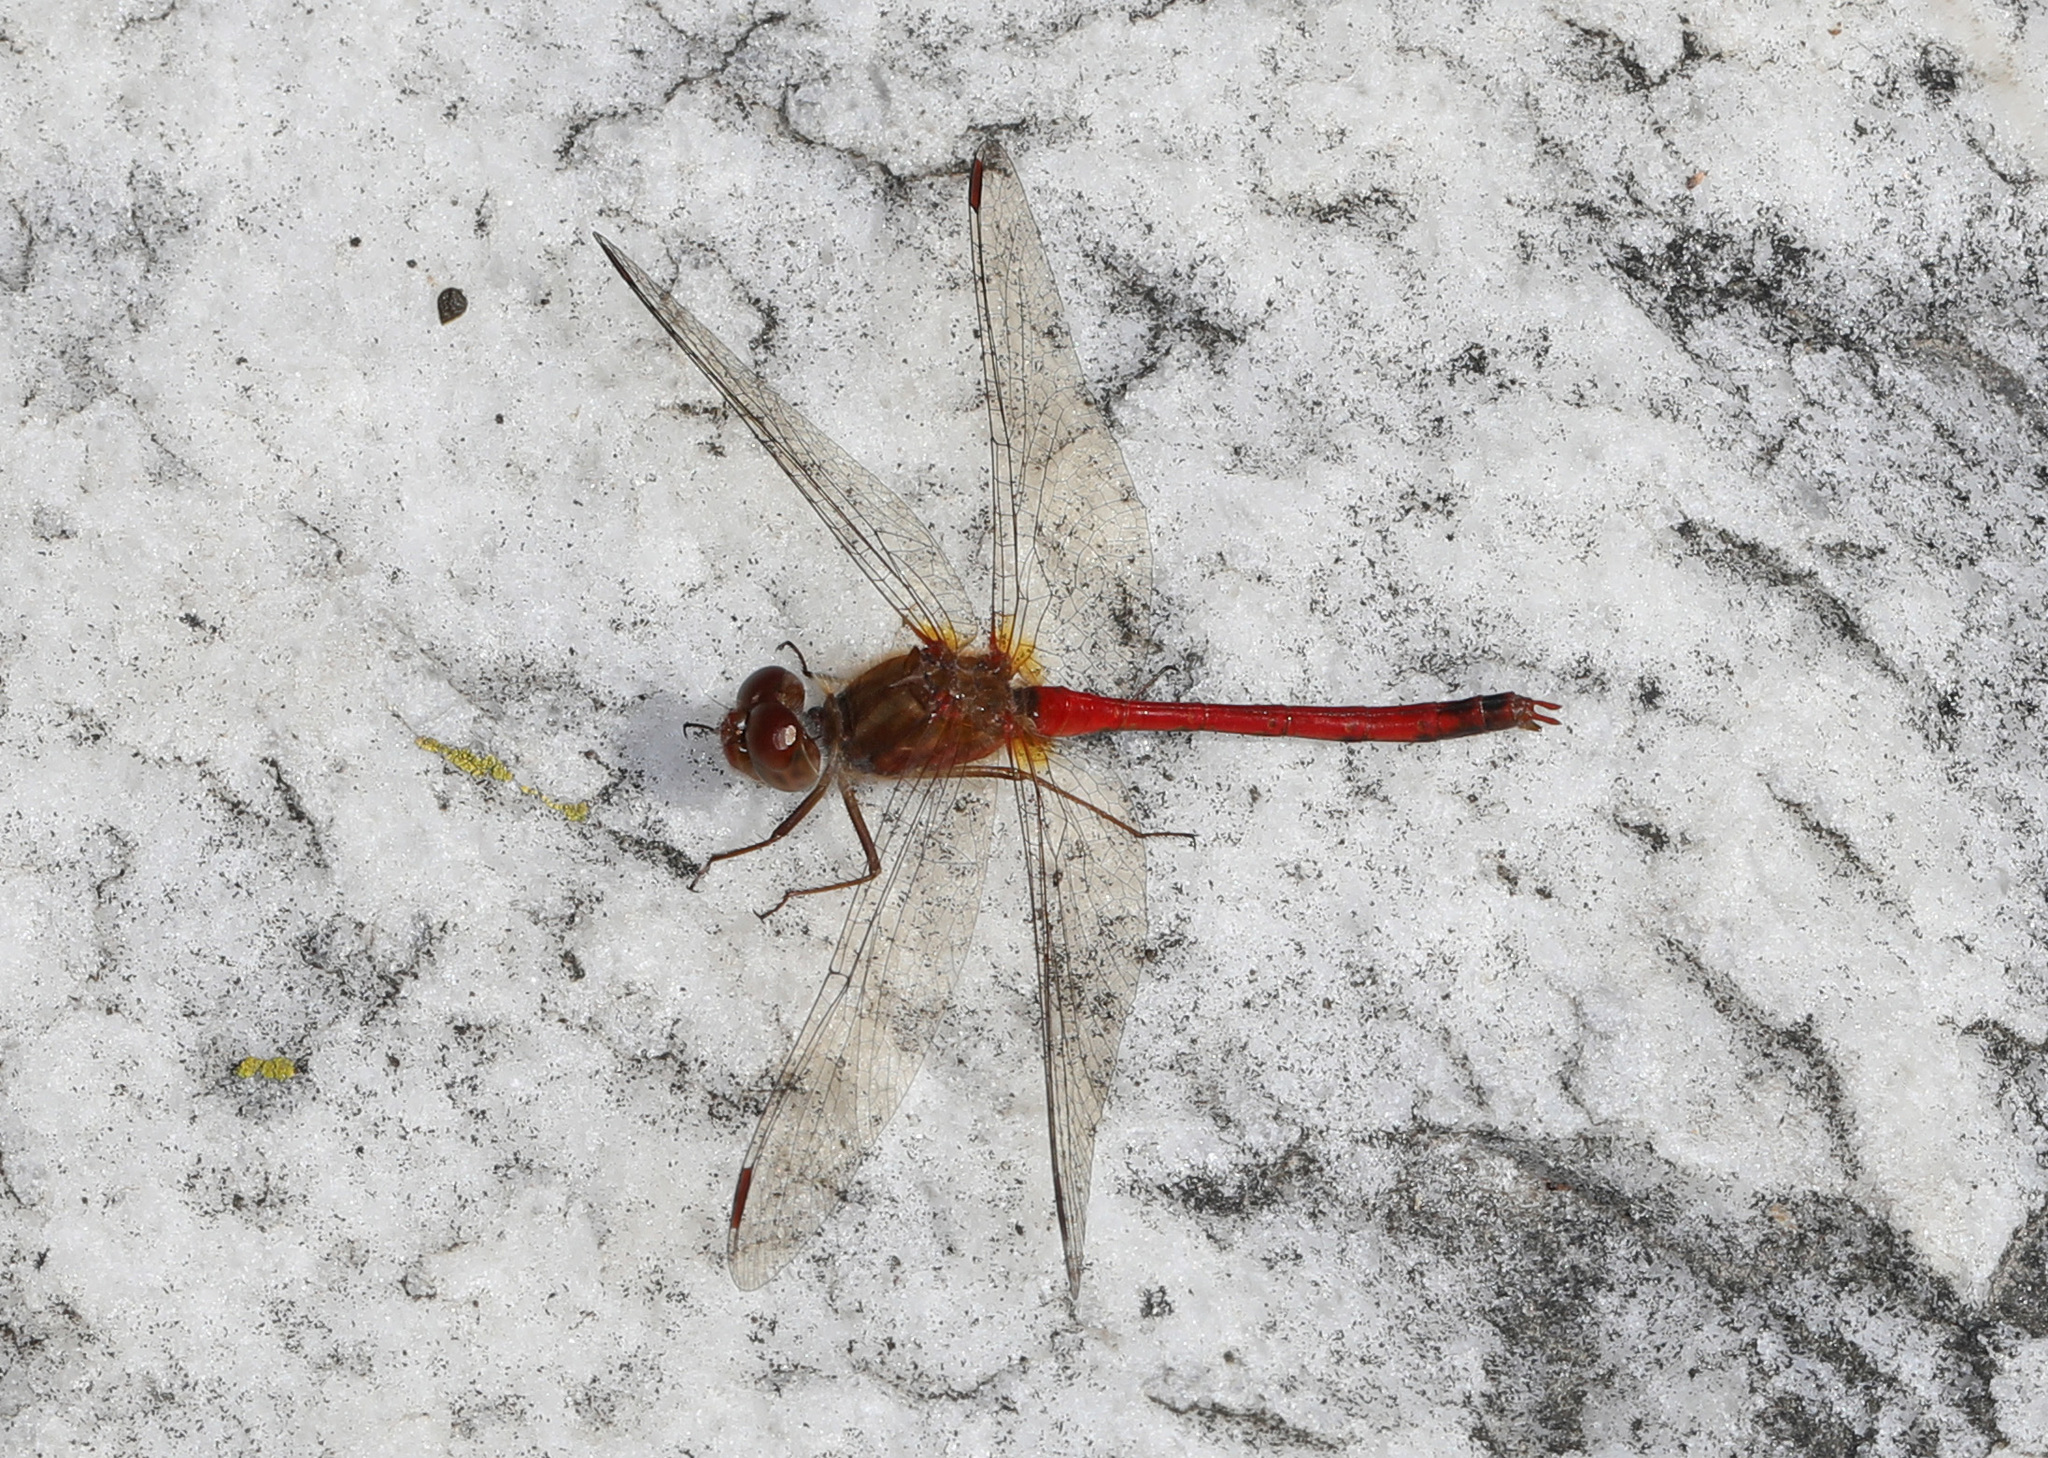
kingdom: Animalia
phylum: Arthropoda
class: Insecta
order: Odonata
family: Libellulidae
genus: Sympetrum
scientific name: Sympetrum vicinum
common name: Autumn meadowhawk
